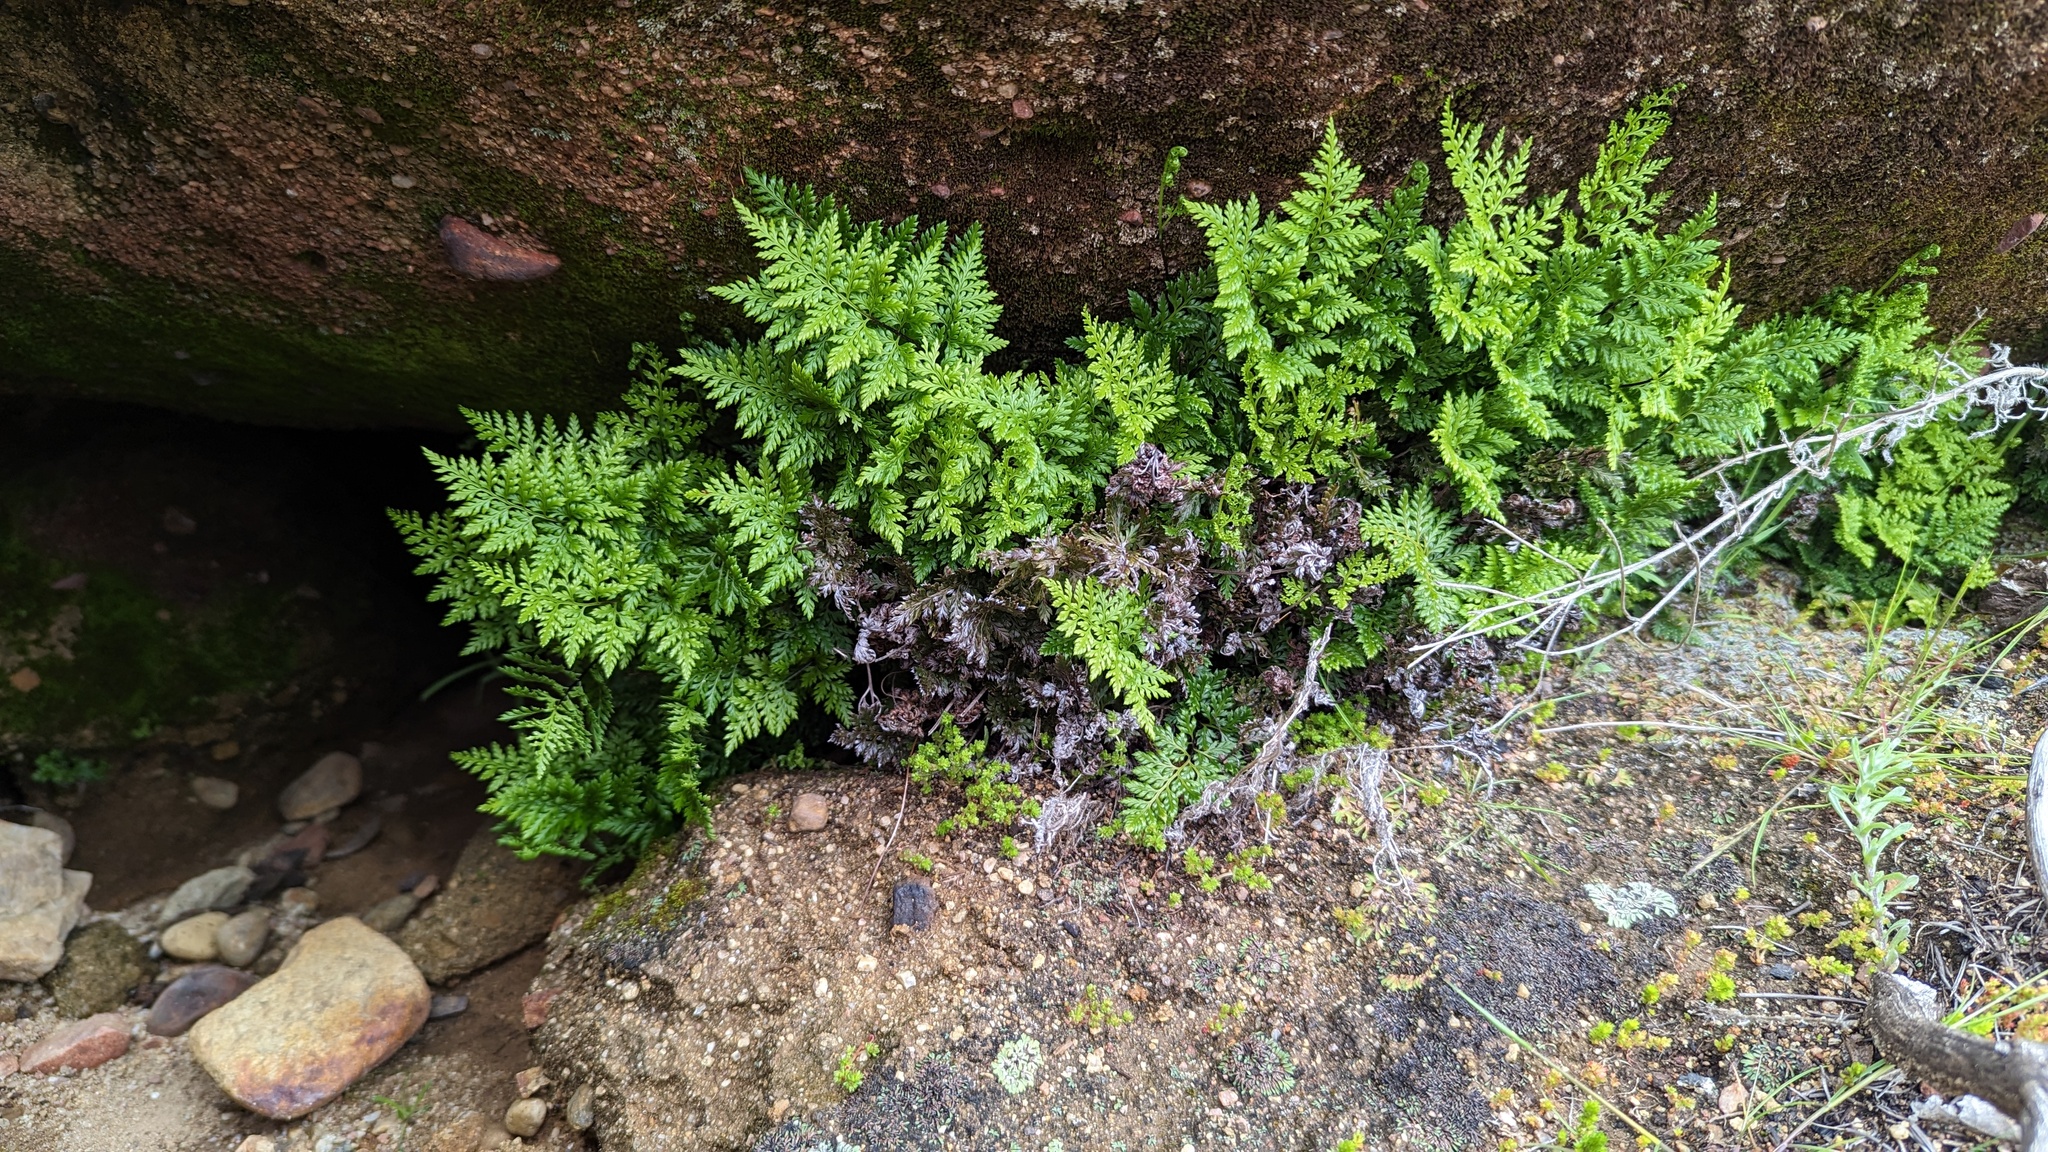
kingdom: Plantae
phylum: Tracheophyta
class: Polypodiopsida
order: Polypodiales
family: Pteridaceae
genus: Aspidotis
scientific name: Aspidotis californica
